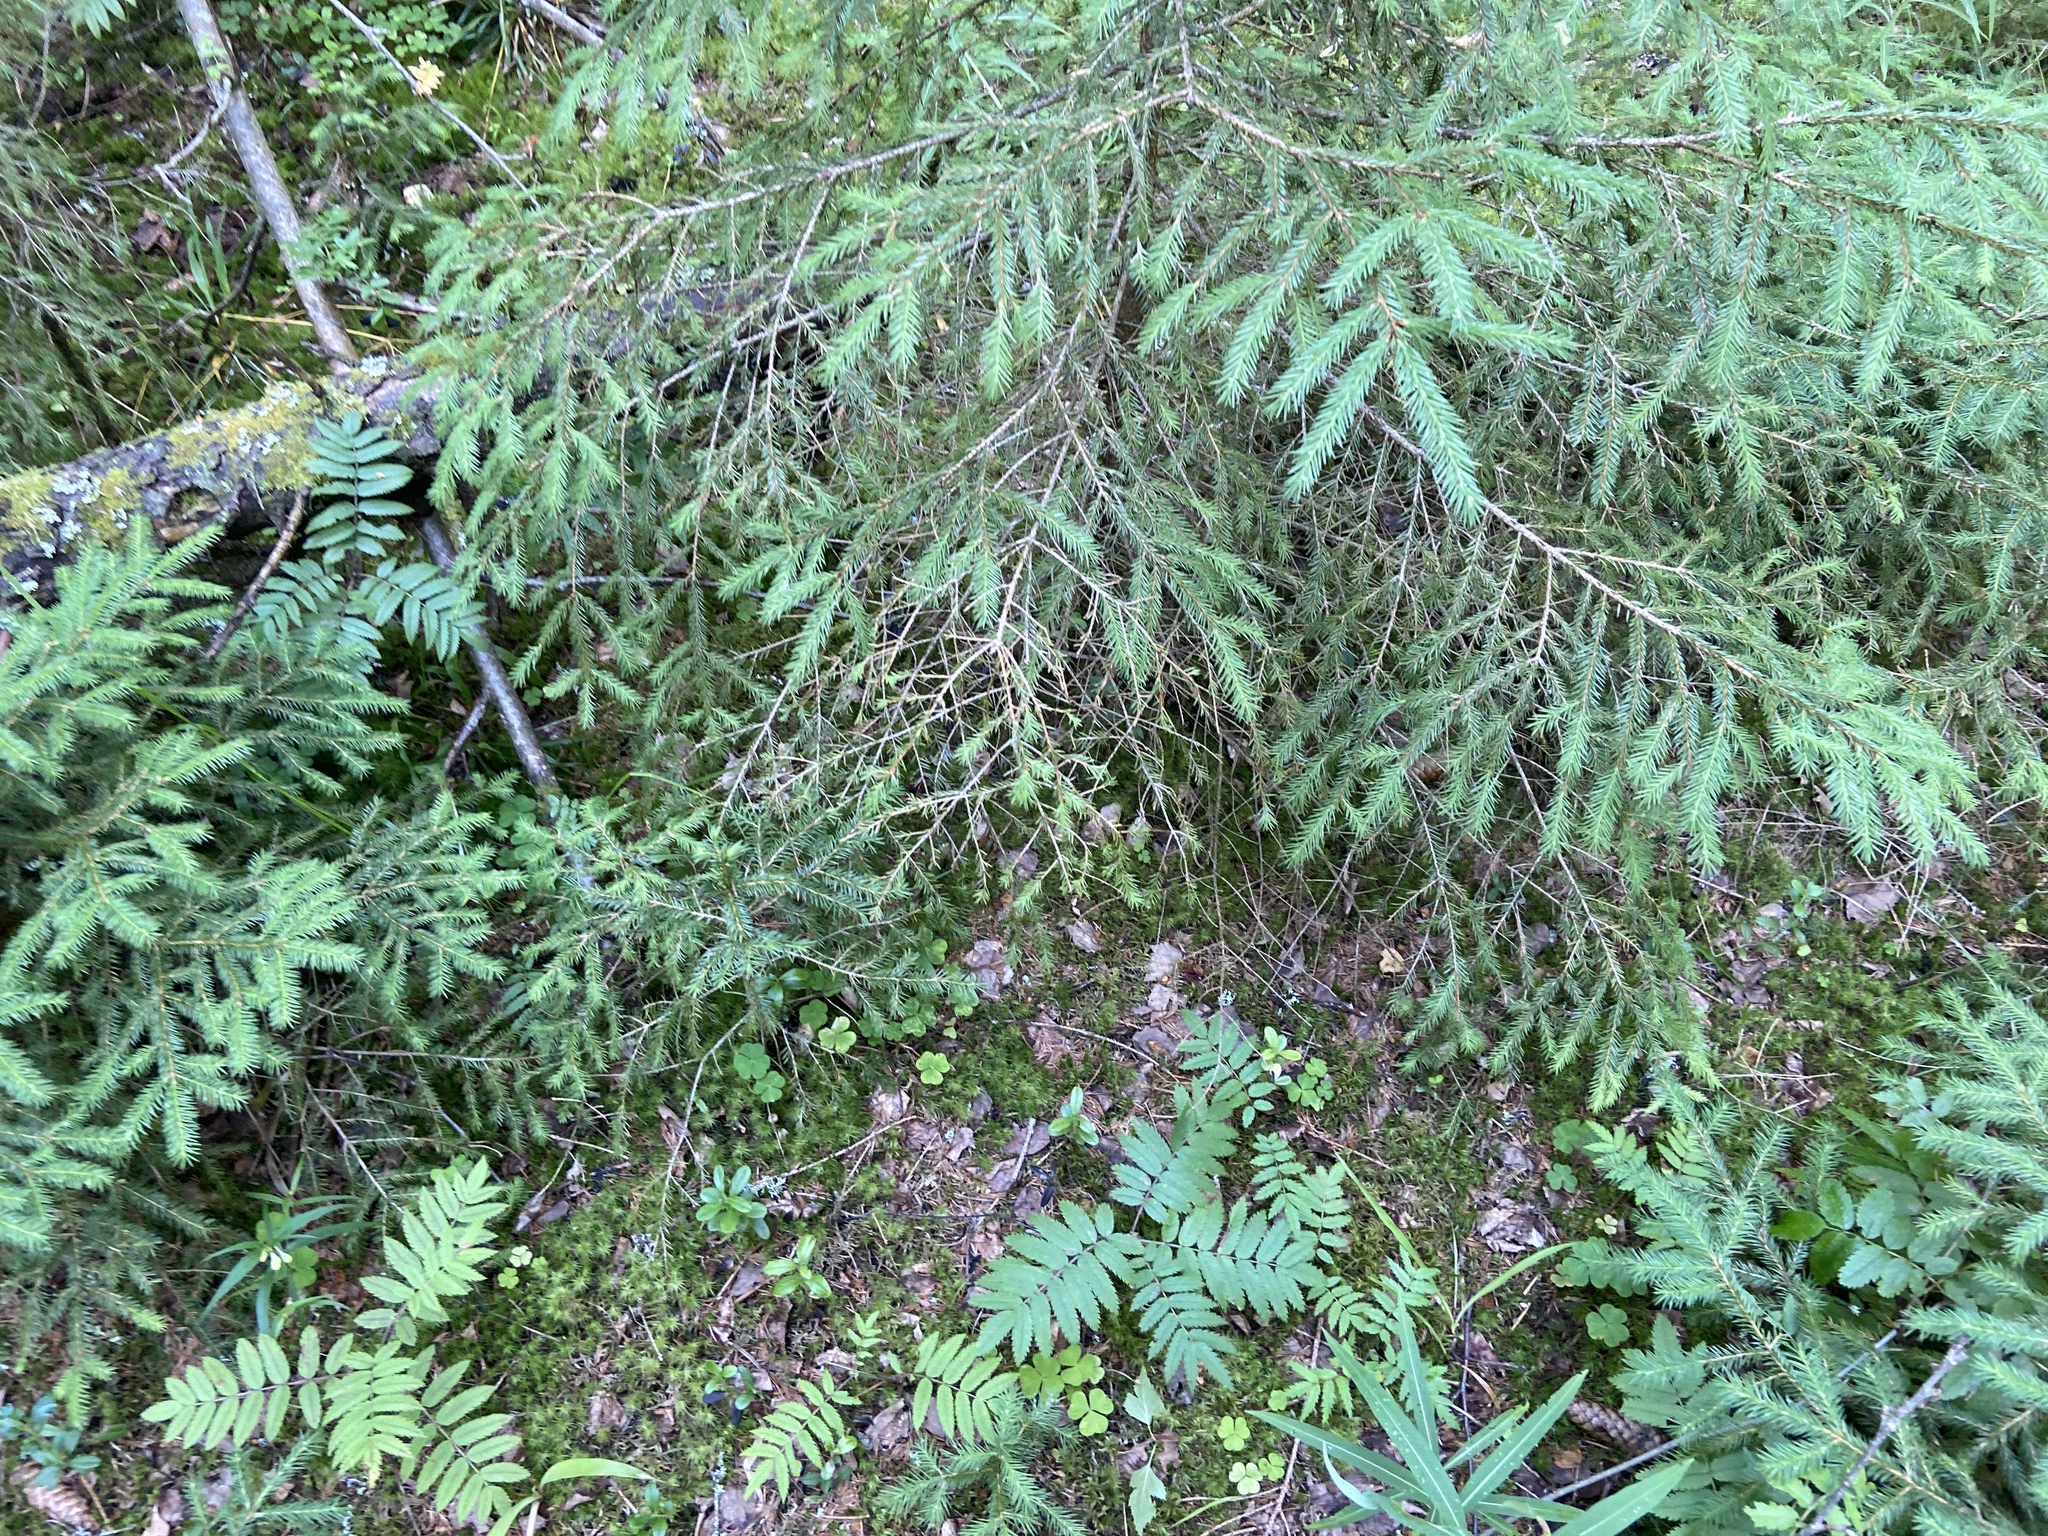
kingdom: Plantae
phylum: Tracheophyta
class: Pinopsida
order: Pinales
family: Pinaceae
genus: Picea
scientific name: Picea abies
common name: Norway spruce
